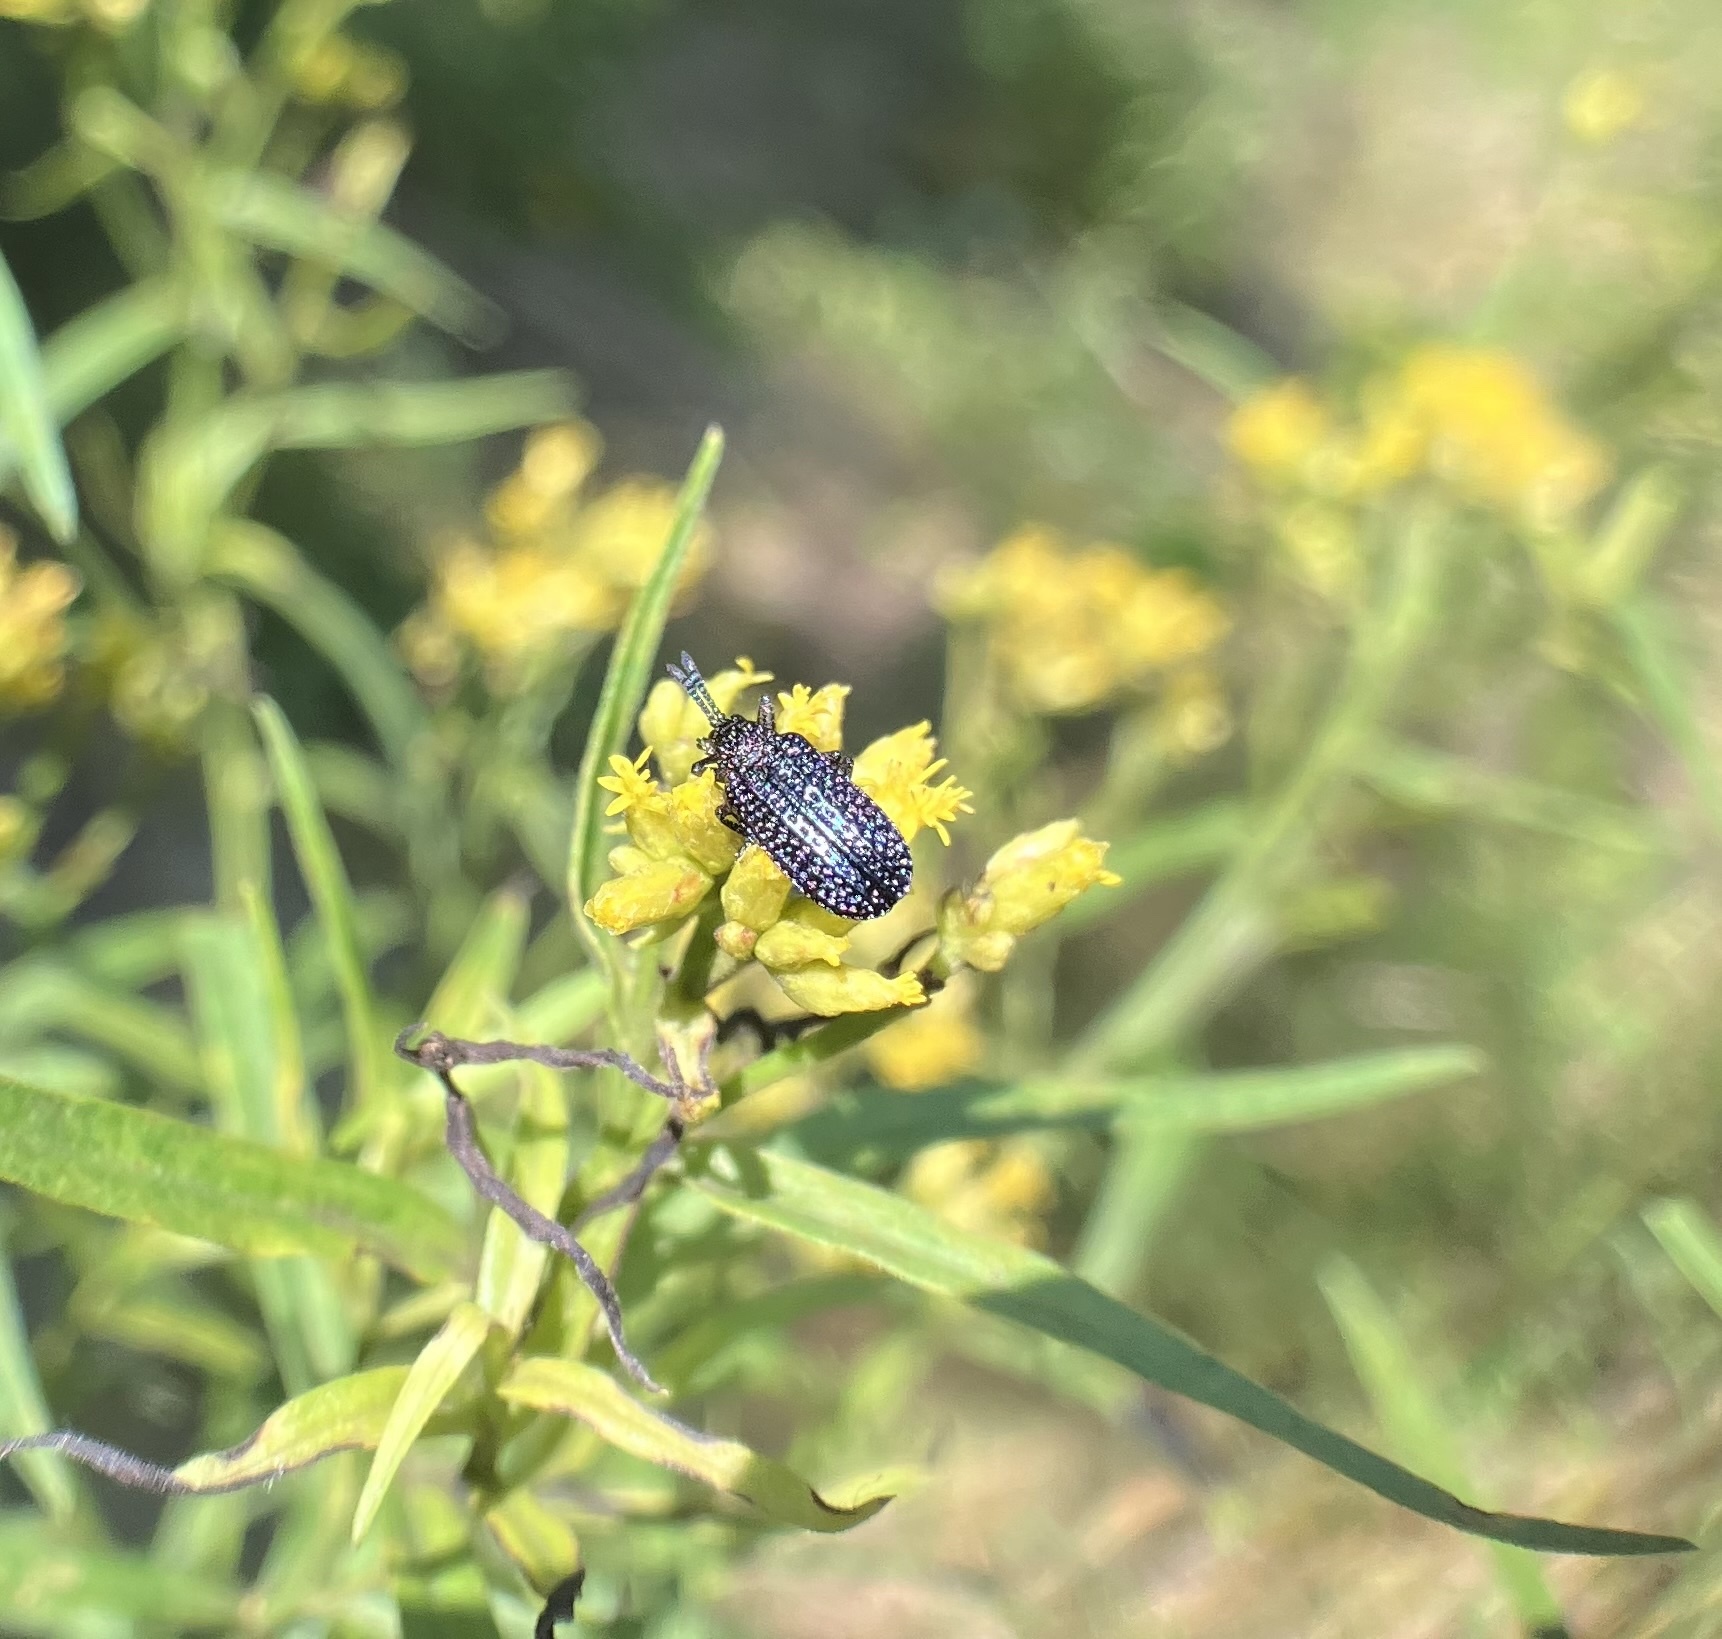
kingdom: Animalia
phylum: Arthropoda
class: Insecta
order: Coleoptera
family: Chrysomelidae
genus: Microrhopala
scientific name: Microrhopala excavata
